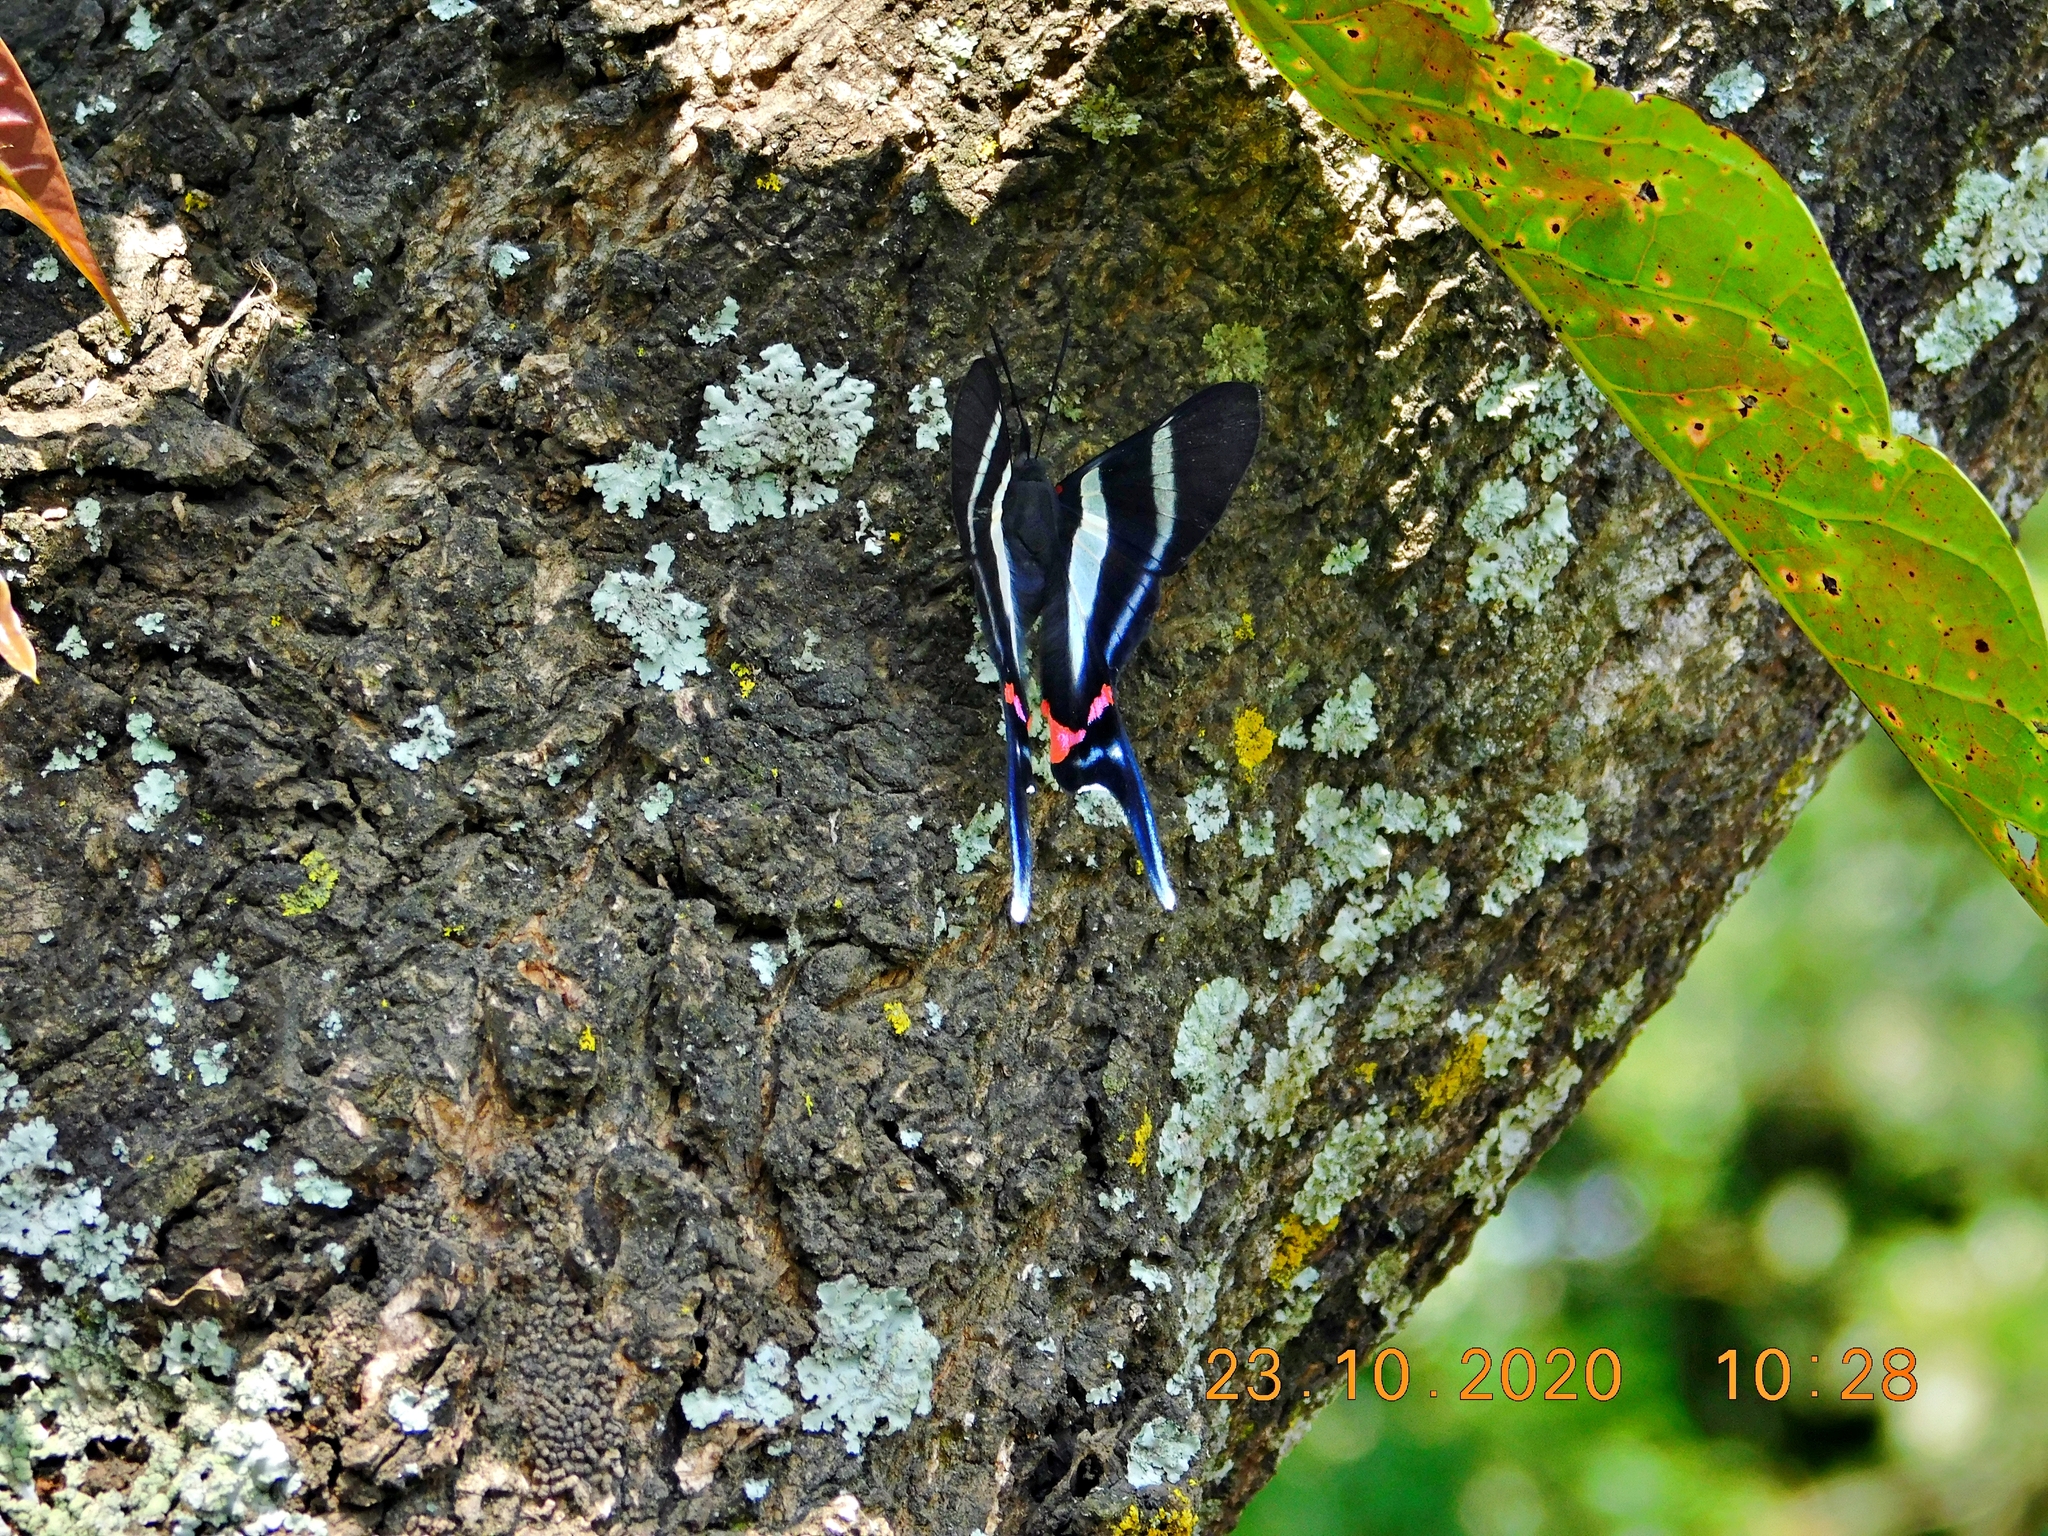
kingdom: Animalia
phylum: Arthropoda
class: Insecta
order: Lepidoptera
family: Riodinidae
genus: Rhetus
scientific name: Rhetus arcius
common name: Long-tailed metalmark
